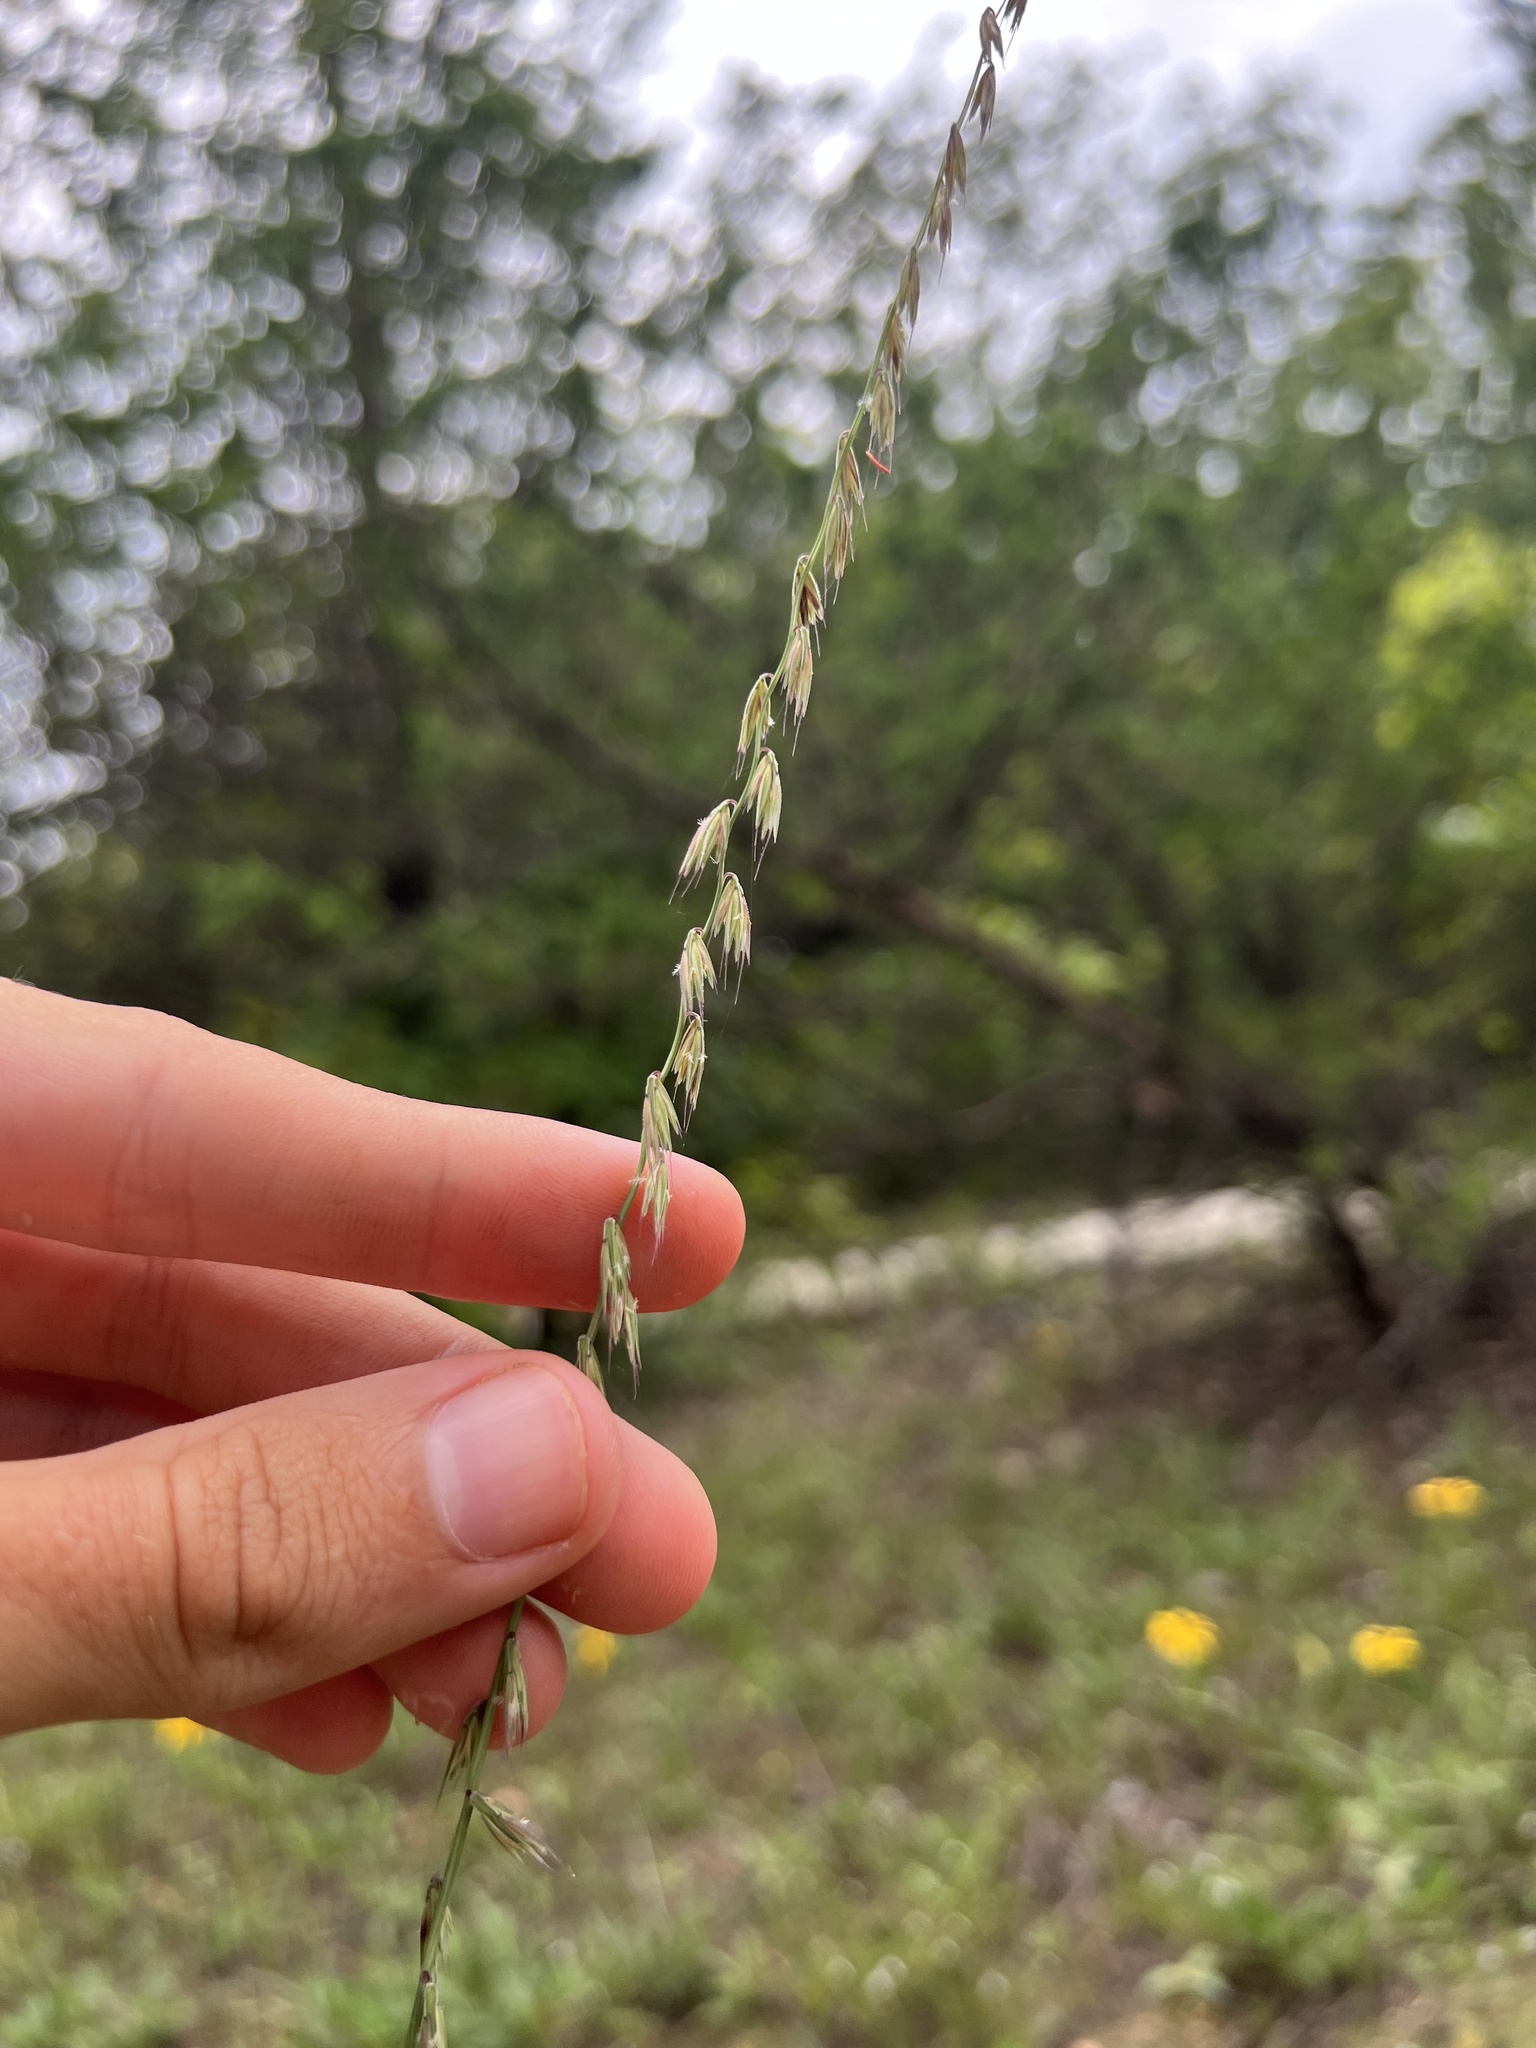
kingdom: Plantae
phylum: Tracheophyta
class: Liliopsida
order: Poales
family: Poaceae
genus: Bouteloua
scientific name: Bouteloua curtipendula
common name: Side-oats grama
